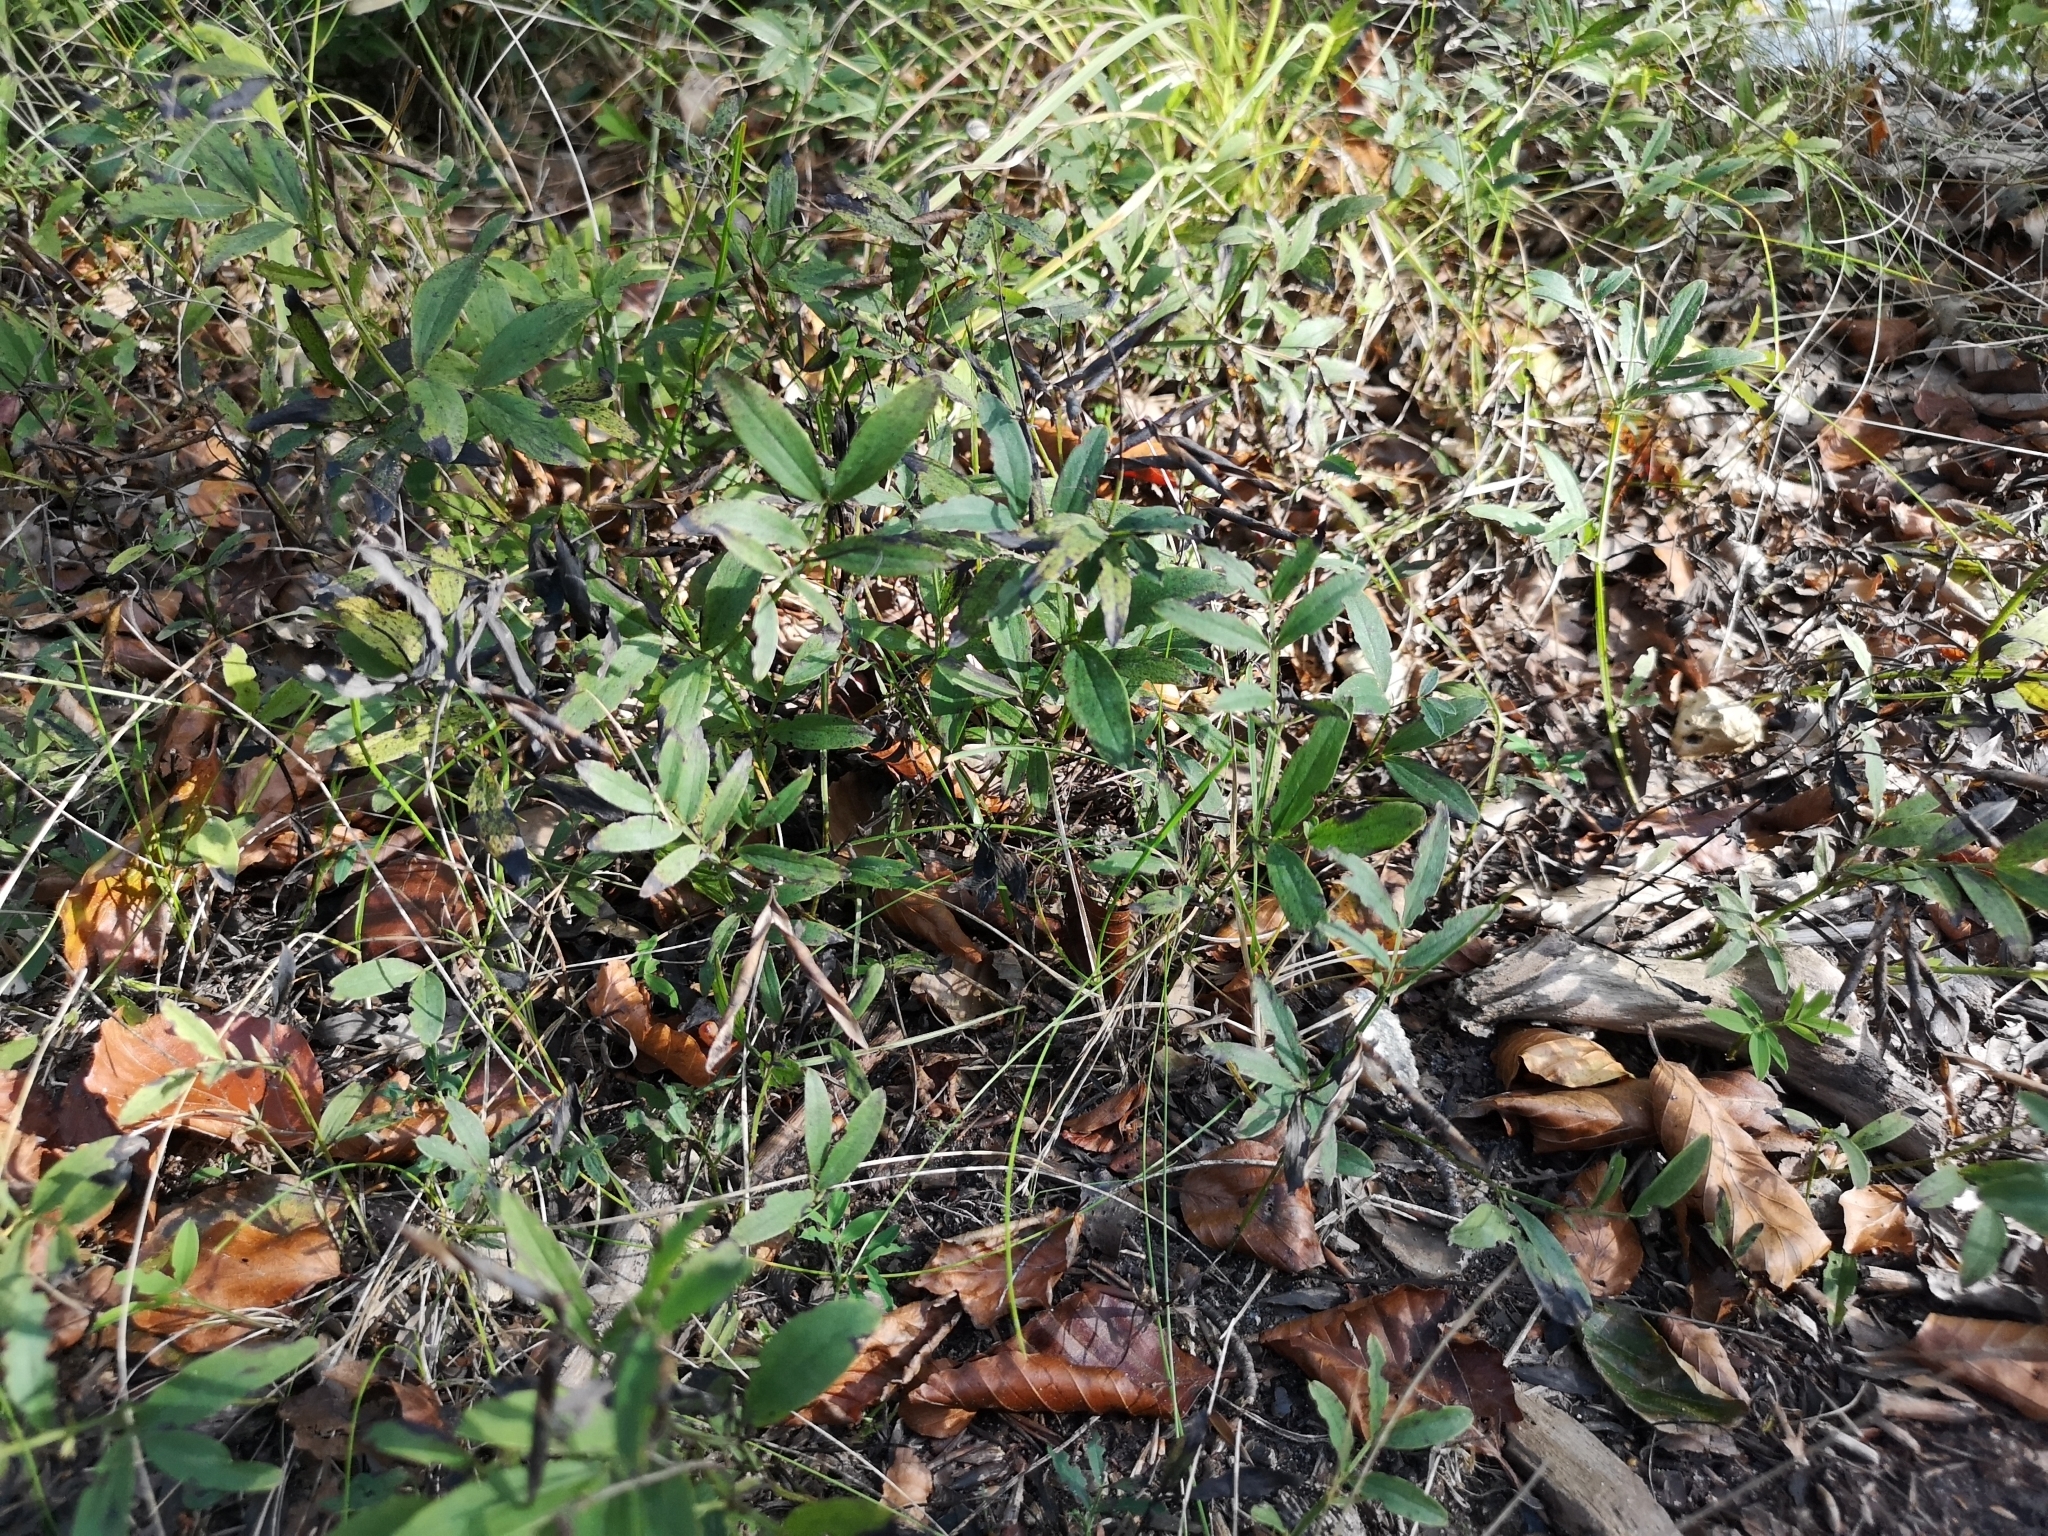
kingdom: Plantae
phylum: Tracheophyta
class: Magnoliopsida
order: Fabales
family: Fabaceae
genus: Lathyrus
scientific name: Lathyrus linifolius
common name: Bitter-vetch
